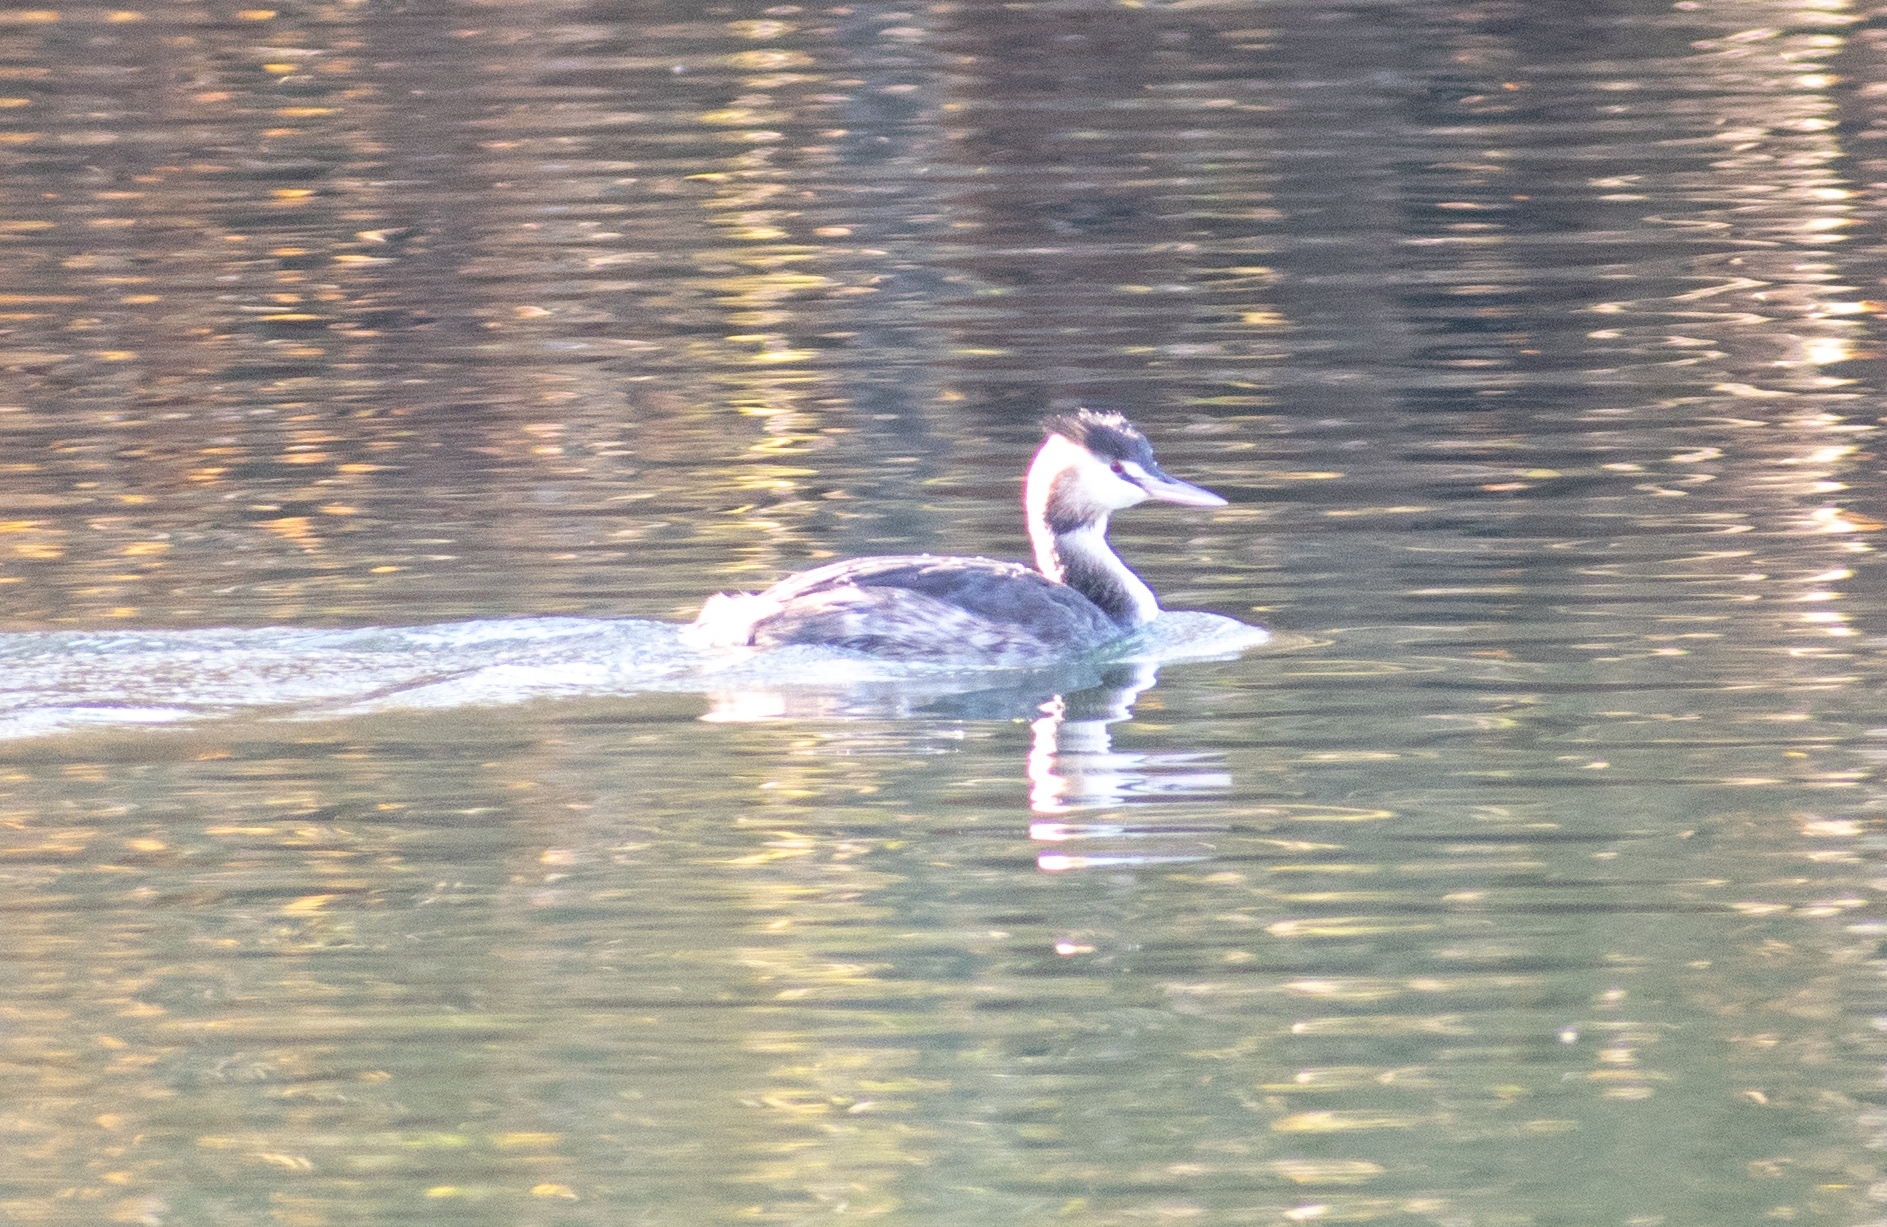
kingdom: Animalia
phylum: Chordata
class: Aves
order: Podicipediformes
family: Podicipedidae
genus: Podiceps
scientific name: Podiceps cristatus
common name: Great crested grebe
